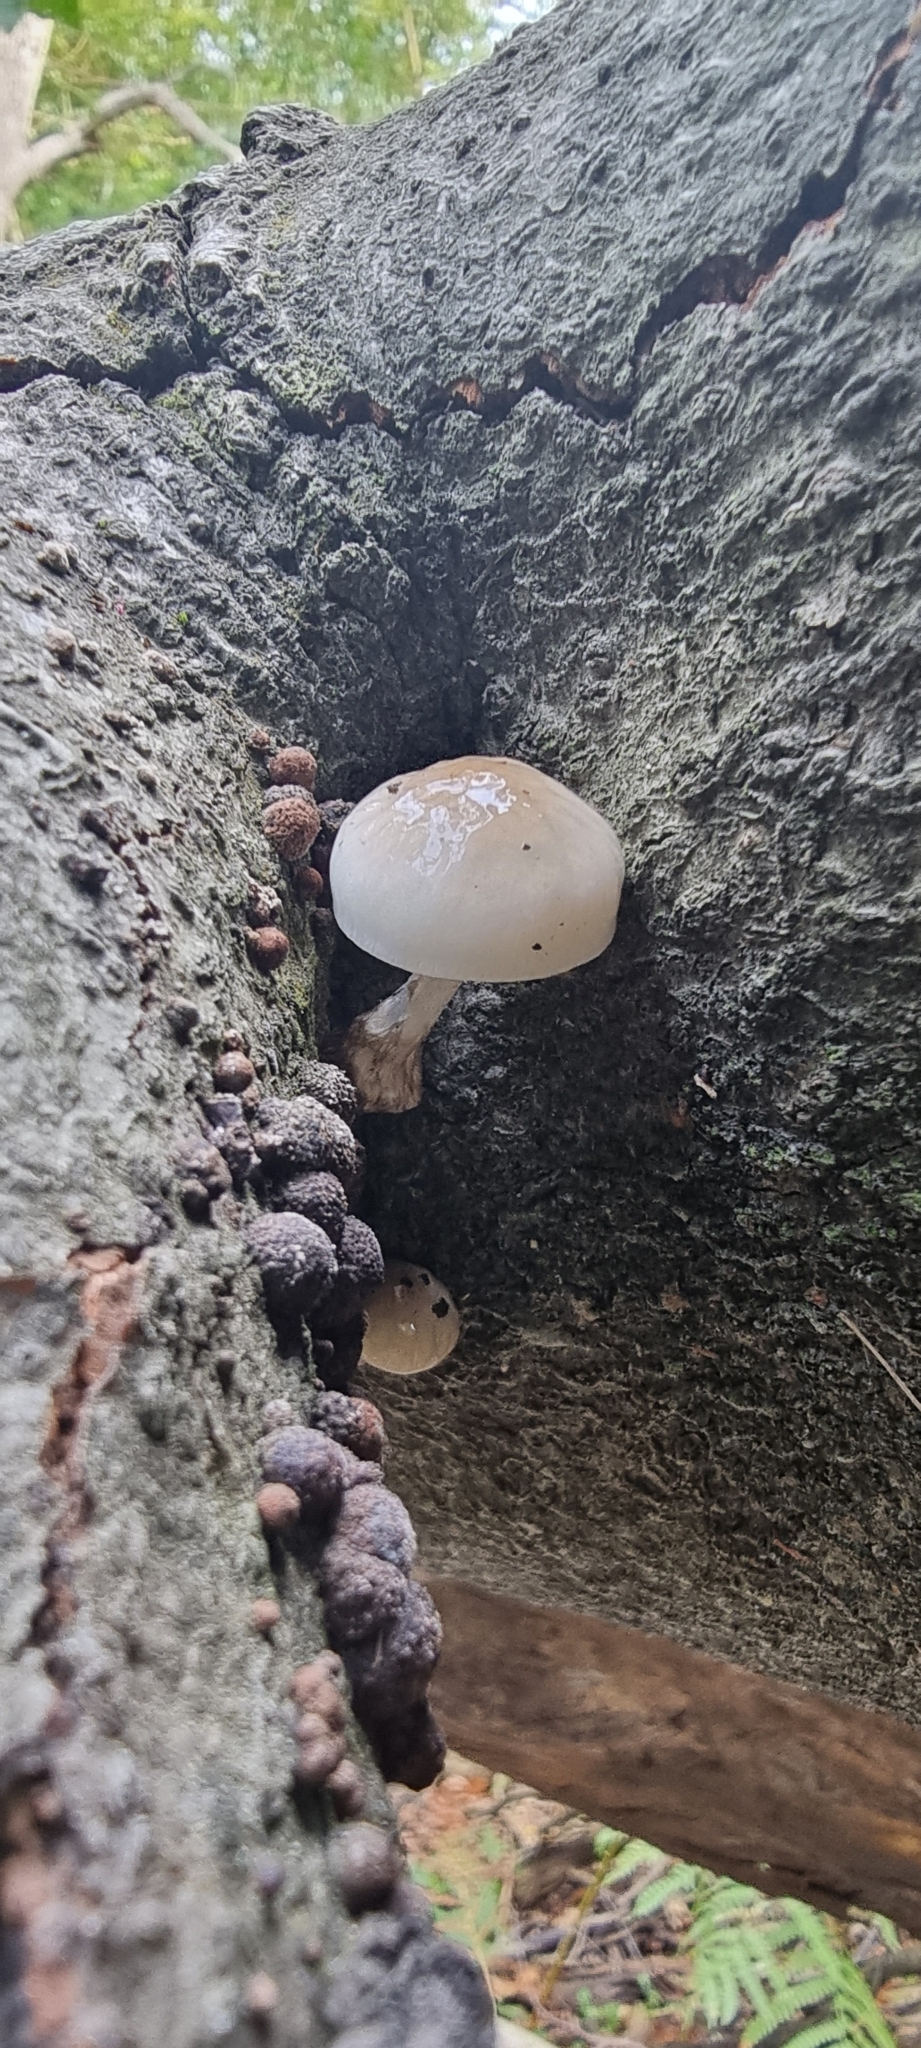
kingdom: Fungi
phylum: Basidiomycota
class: Agaricomycetes
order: Agaricales
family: Physalacriaceae
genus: Mucidula
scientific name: Mucidula mucida
